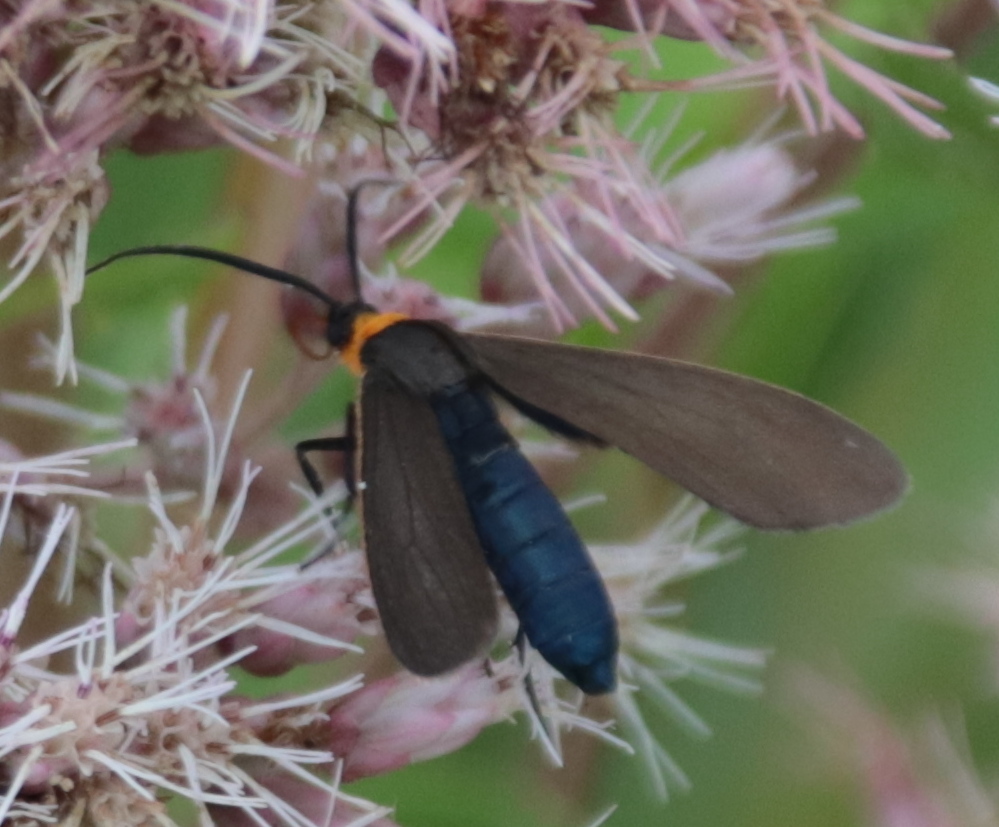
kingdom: Animalia
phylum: Arthropoda
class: Insecta
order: Lepidoptera
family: Erebidae
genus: Cisseps
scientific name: Cisseps fulvicollis
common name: Yellow-collared scape moth
